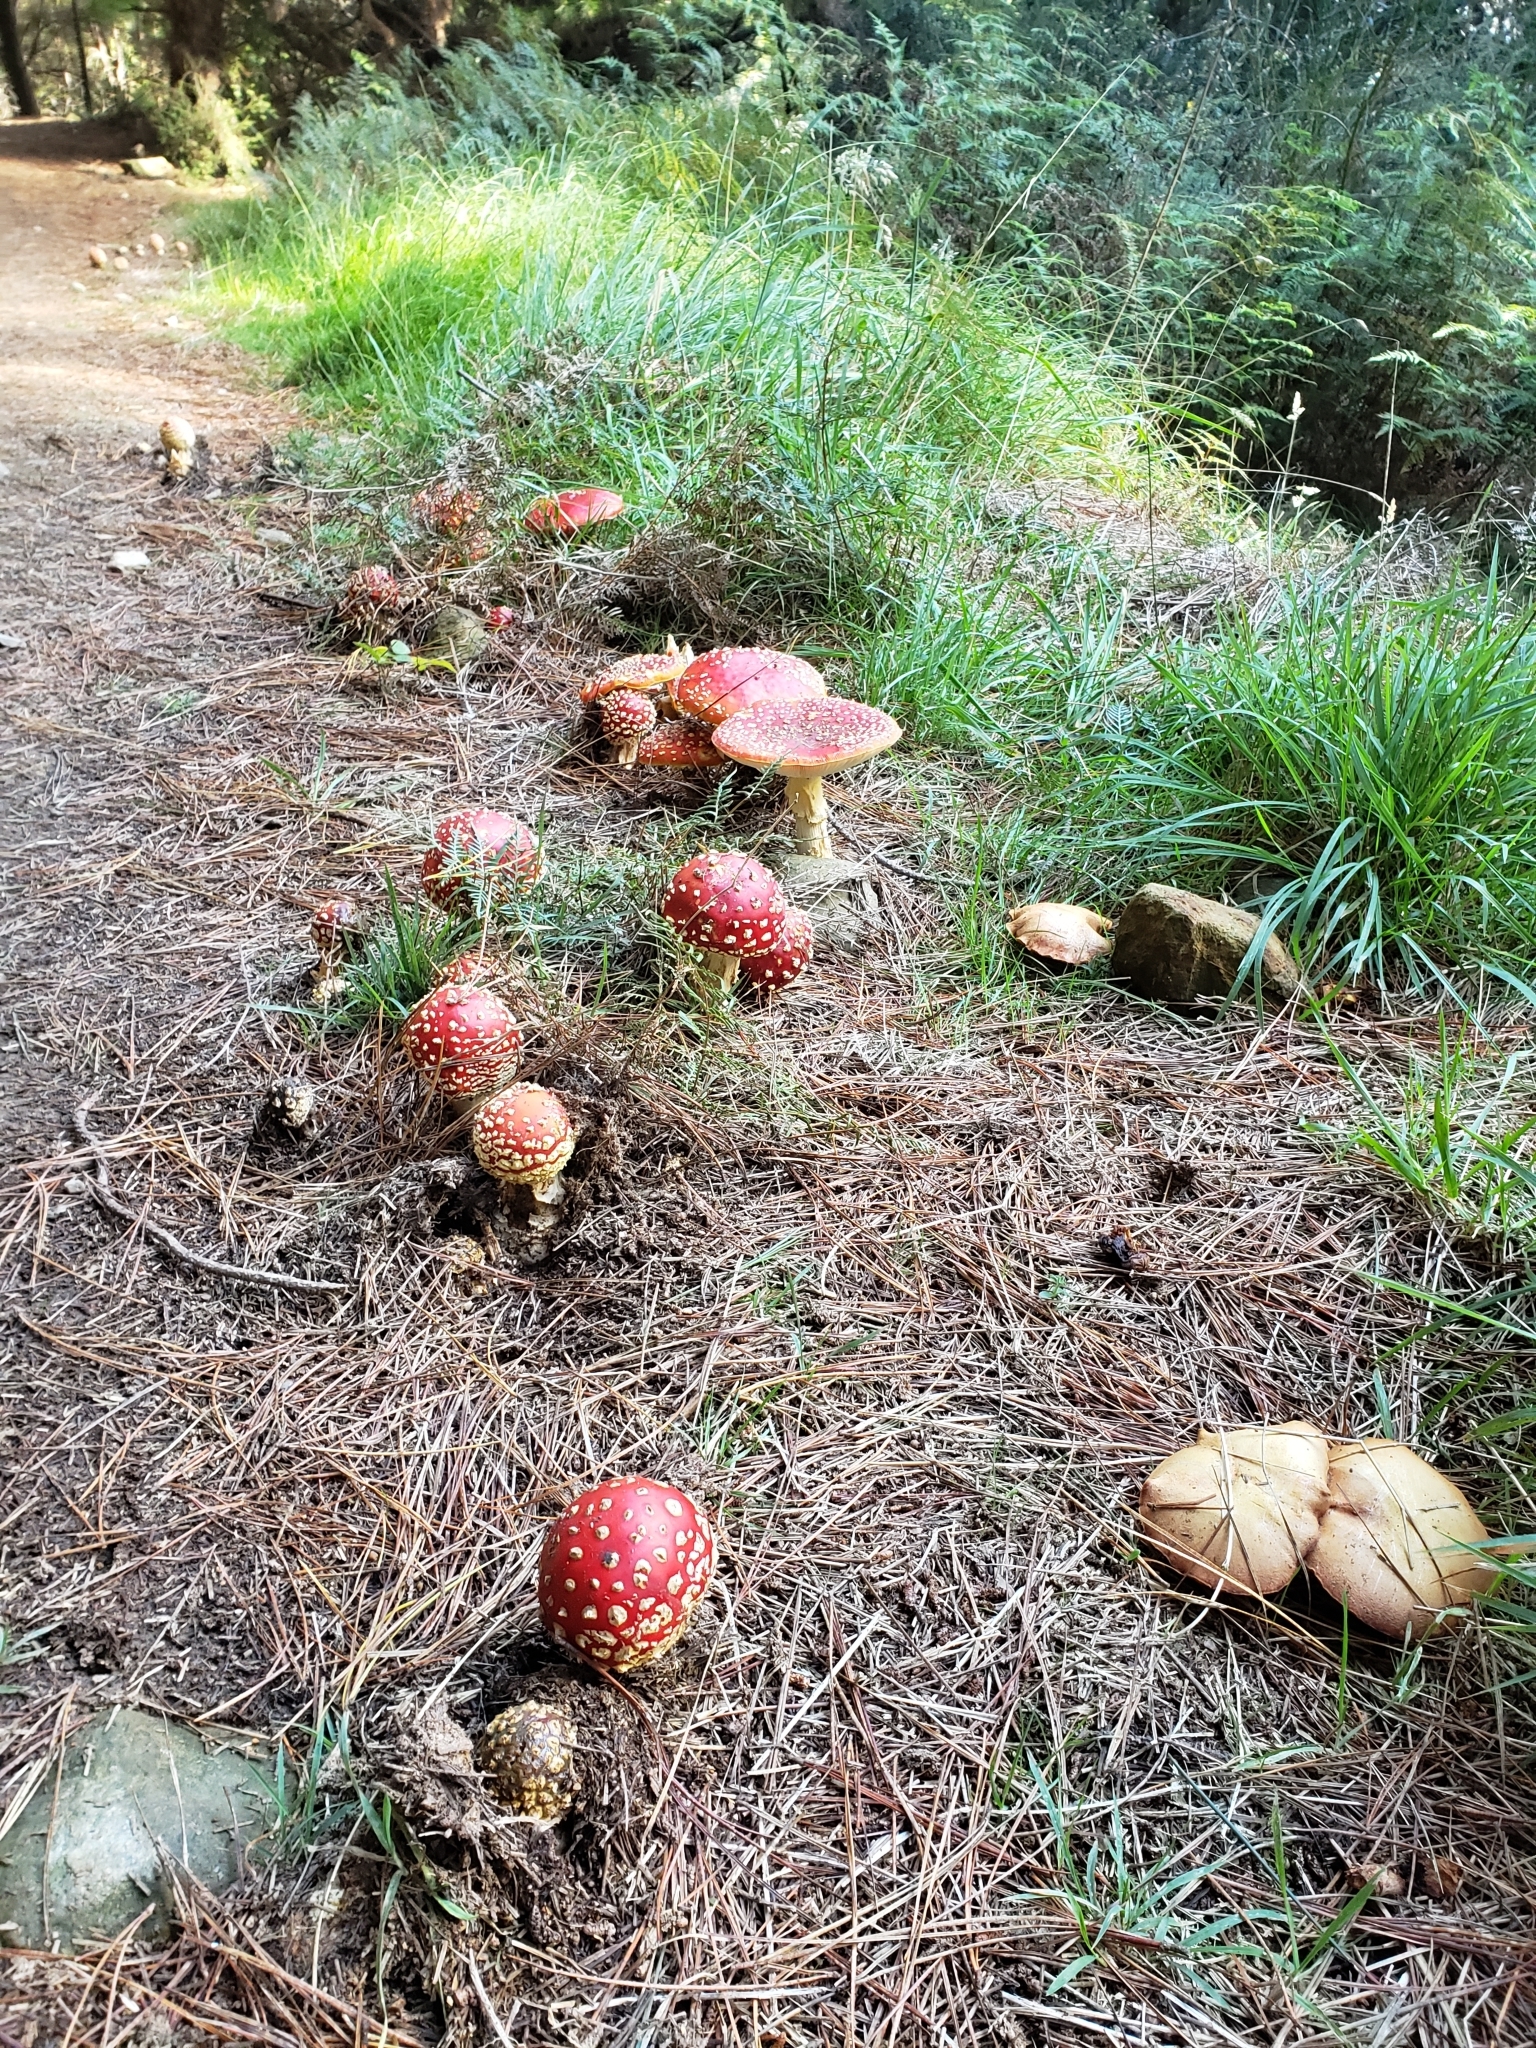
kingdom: Fungi
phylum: Basidiomycota
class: Agaricomycetes
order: Agaricales
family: Amanitaceae
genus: Amanita
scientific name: Amanita muscaria
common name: Fly agaric
